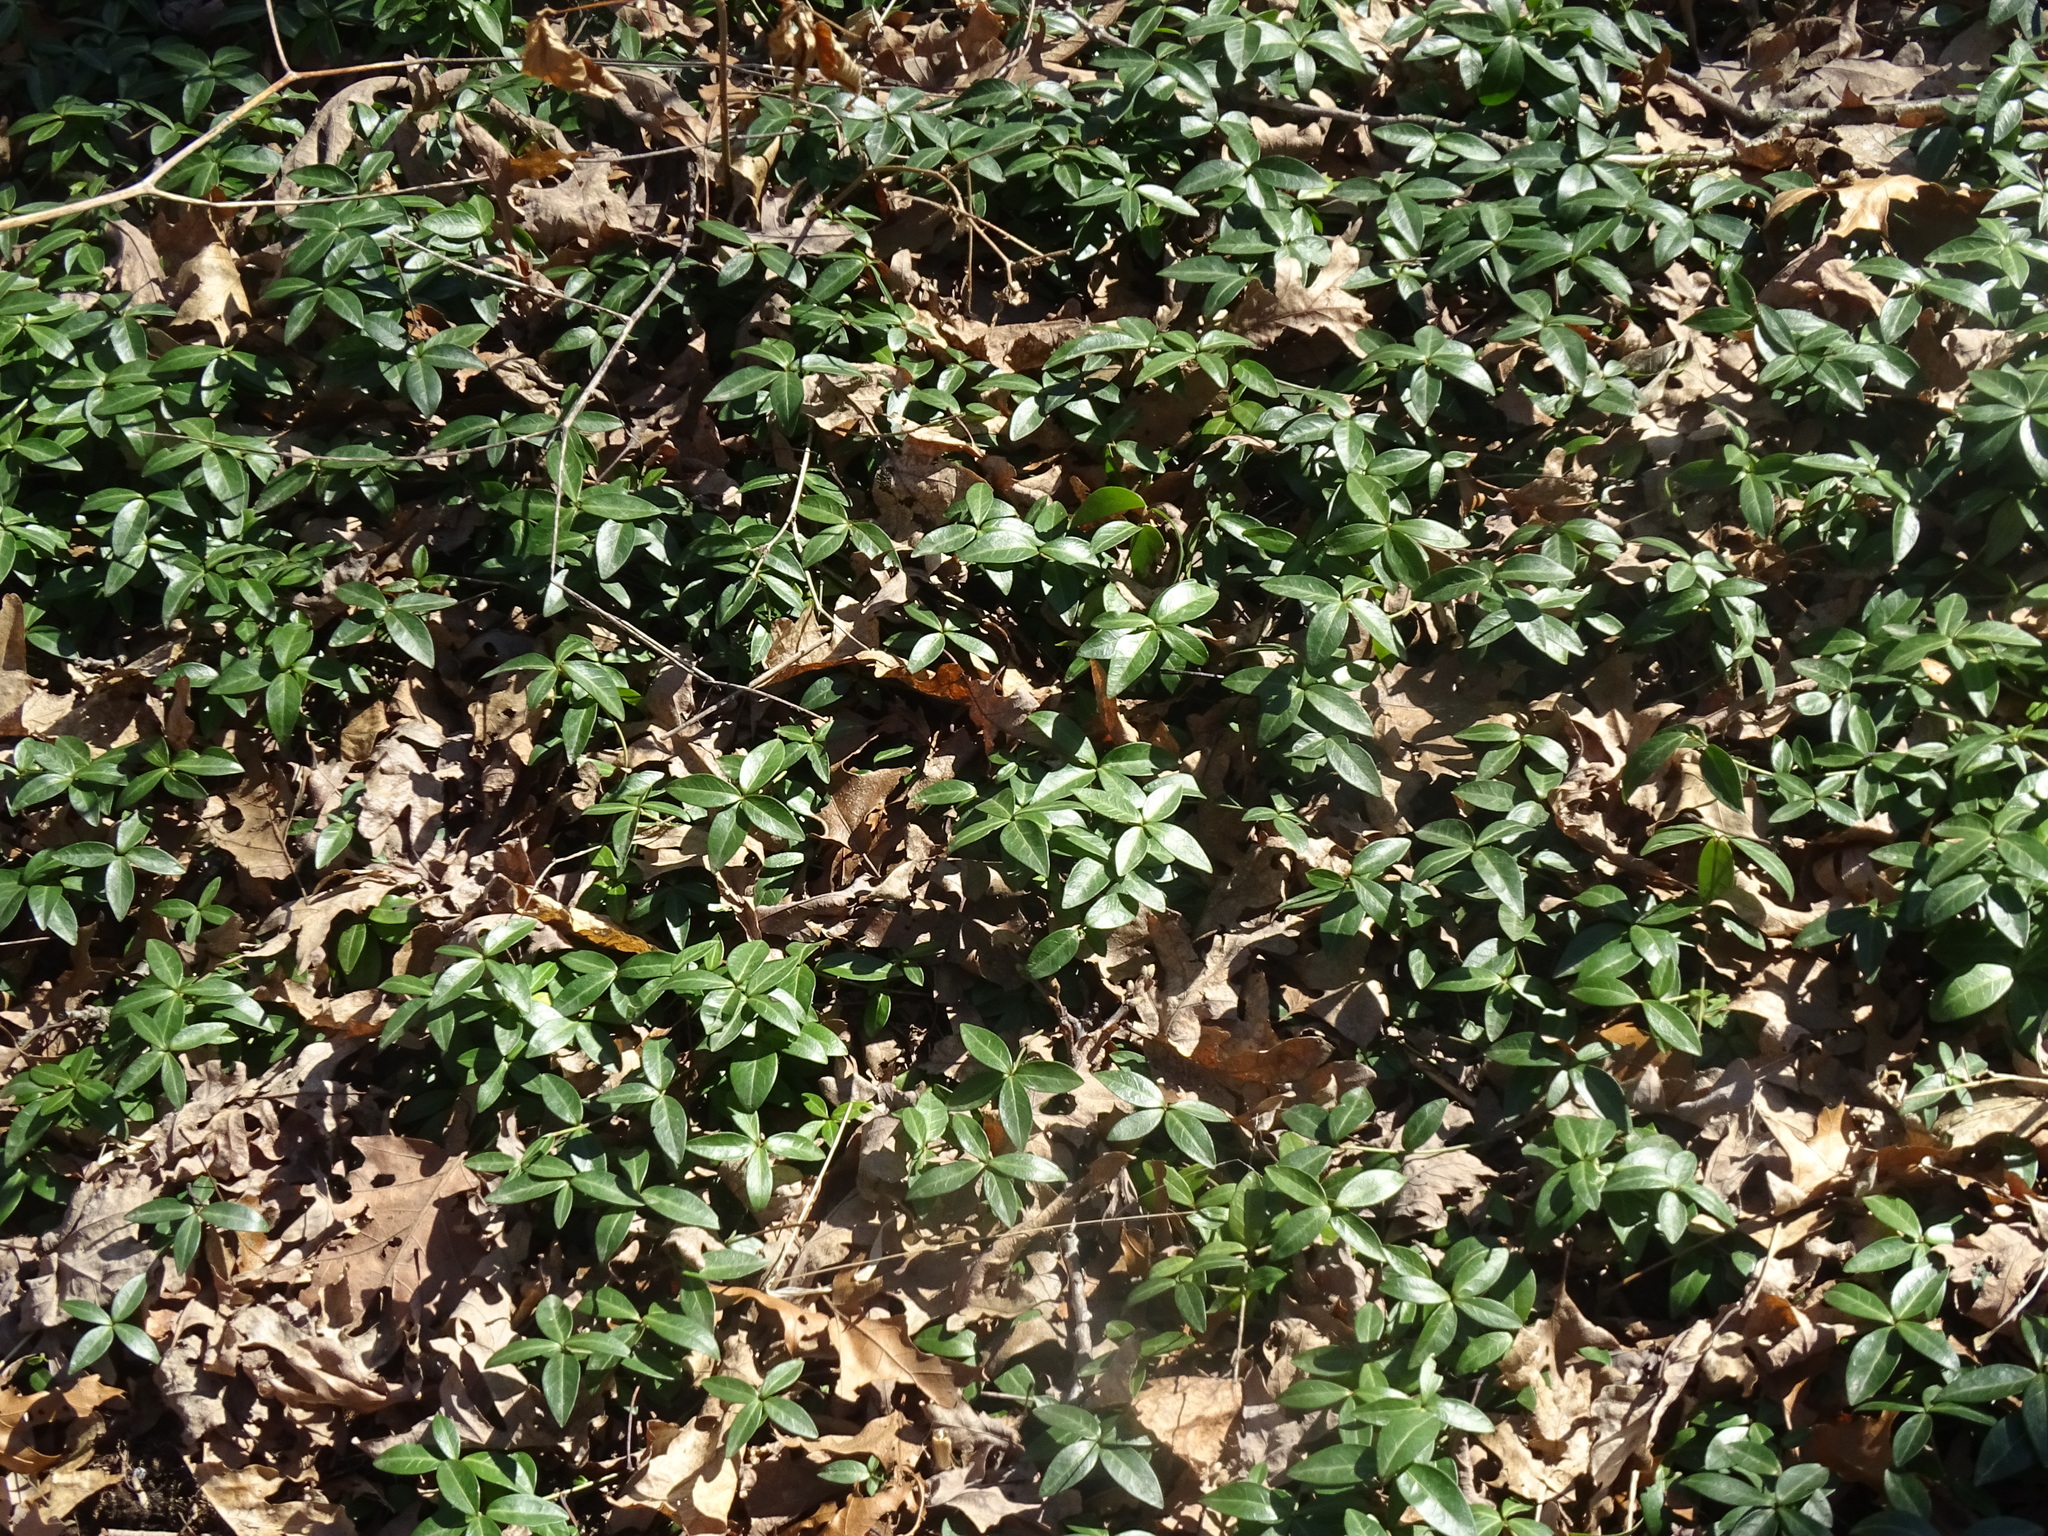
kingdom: Plantae
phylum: Tracheophyta
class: Magnoliopsida
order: Gentianales
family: Apocynaceae
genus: Vinca
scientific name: Vinca minor
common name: Lesser periwinkle
